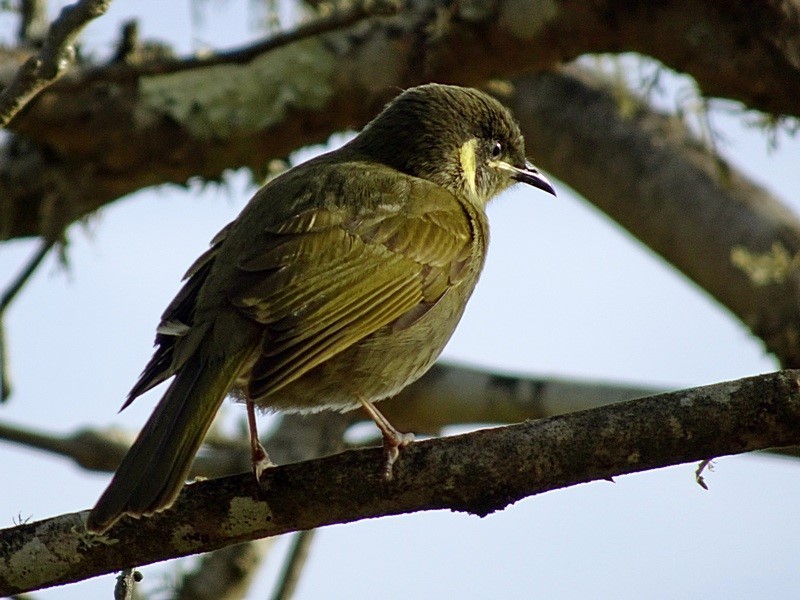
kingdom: Animalia
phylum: Chordata
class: Aves
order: Passeriformes
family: Meliphagidae
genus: Meliphaga
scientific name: Meliphaga lewinii
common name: Lewin's honeyeater
